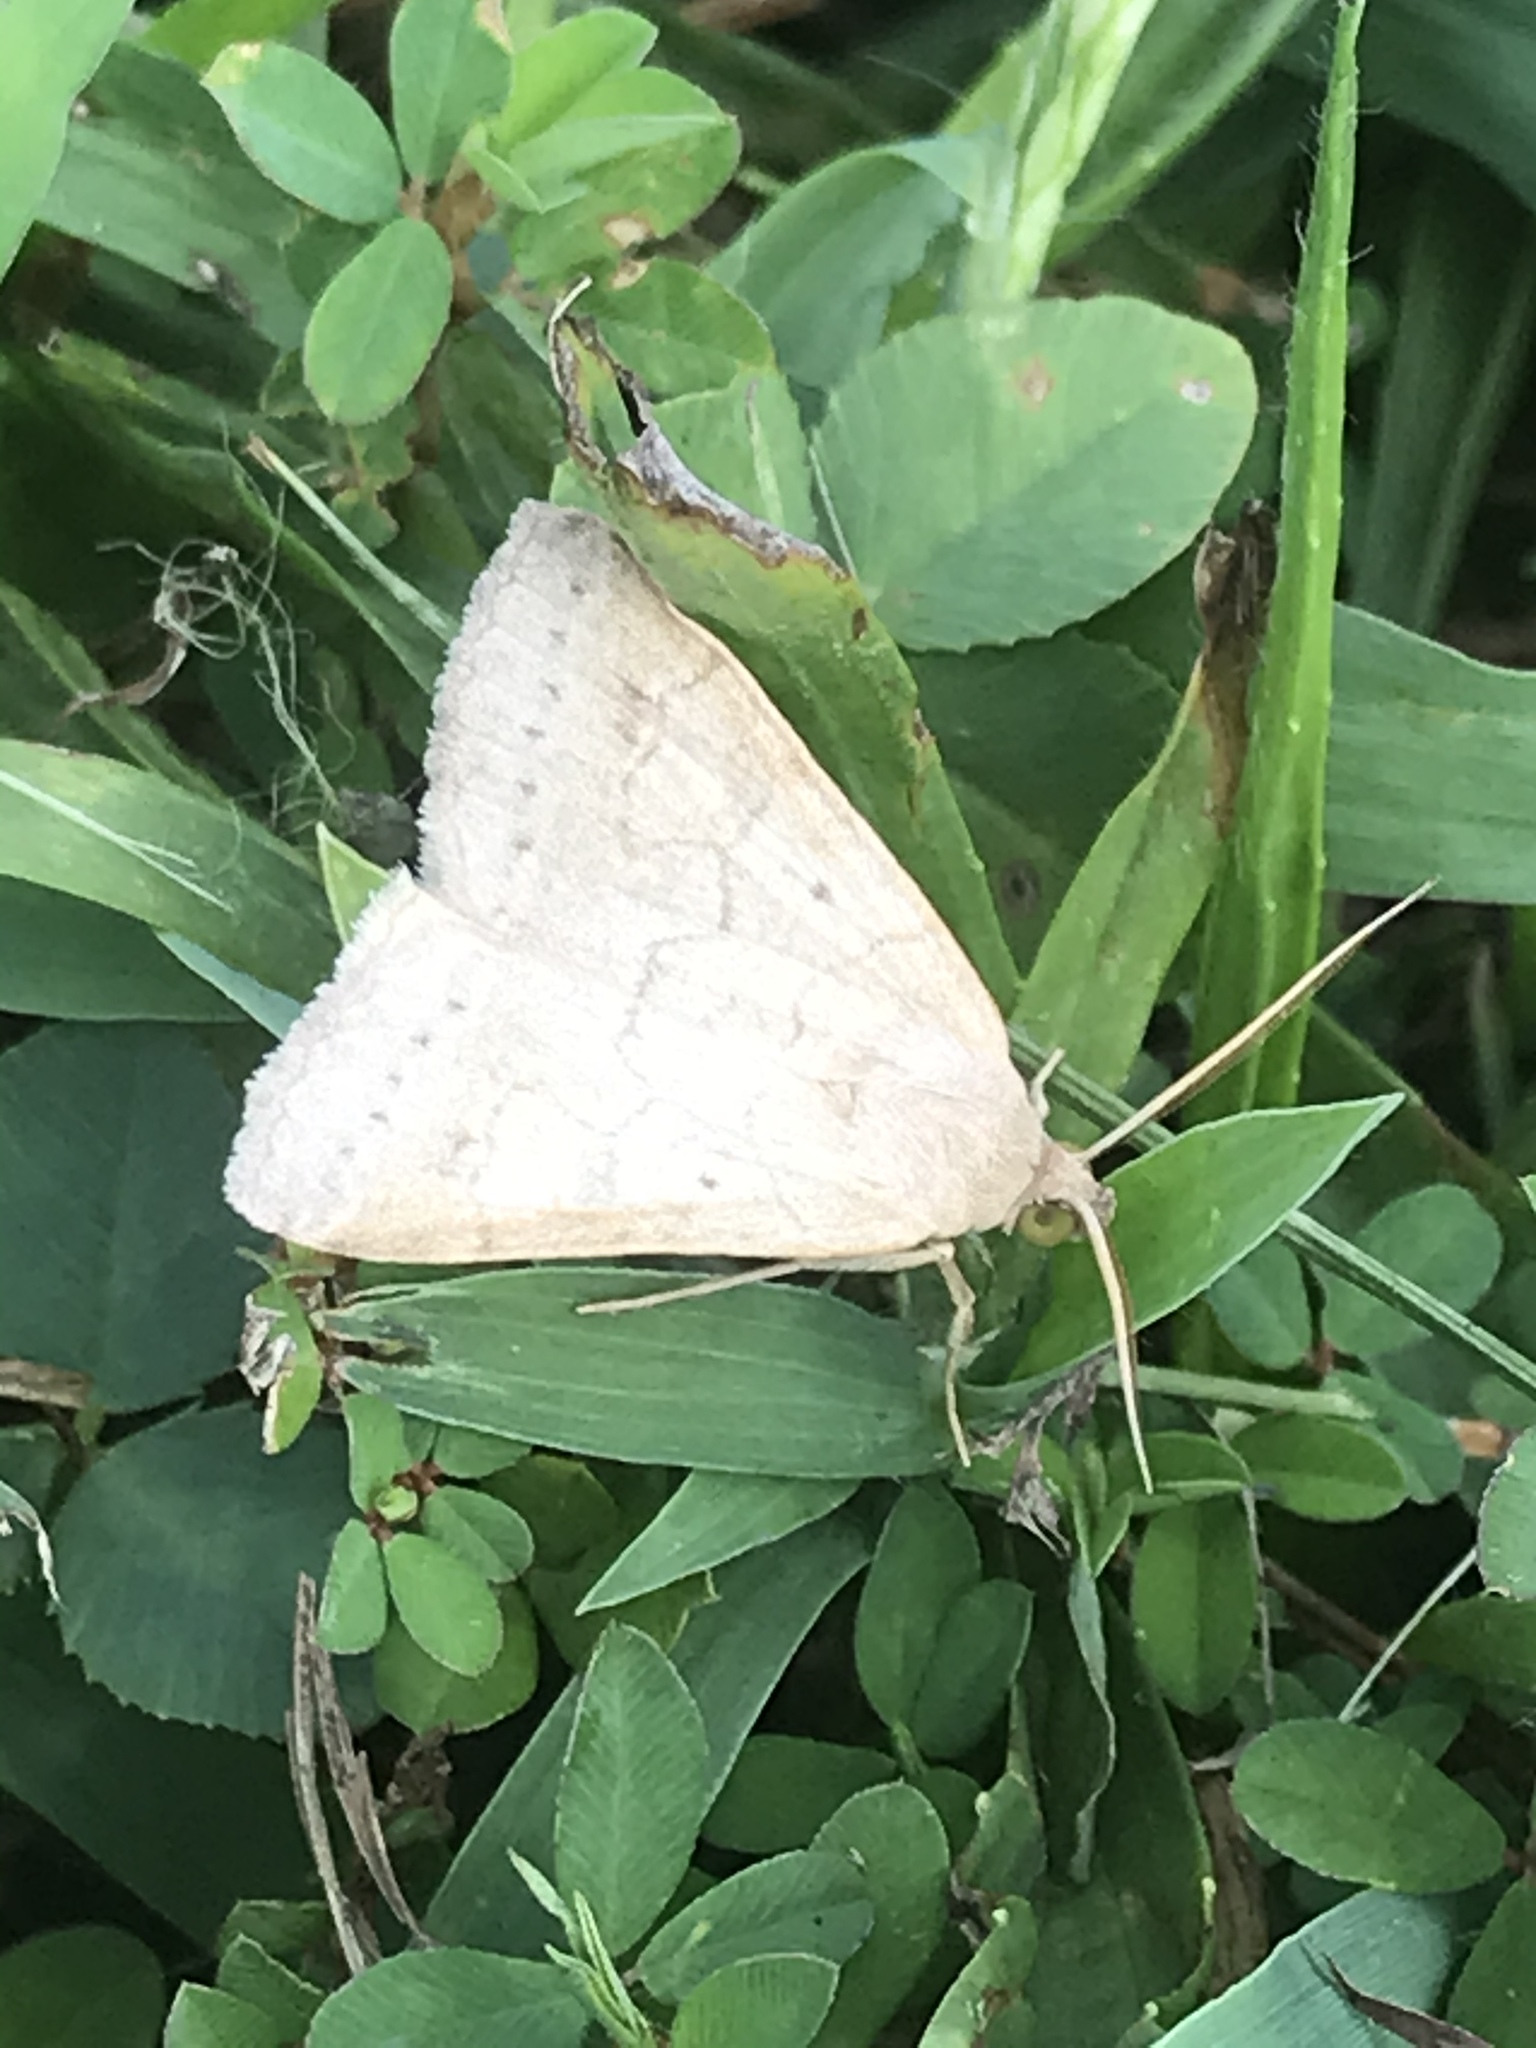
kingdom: Animalia
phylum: Arthropoda
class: Insecta
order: Lepidoptera
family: Erebidae
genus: Caenurgia
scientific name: Caenurgia chloropha
